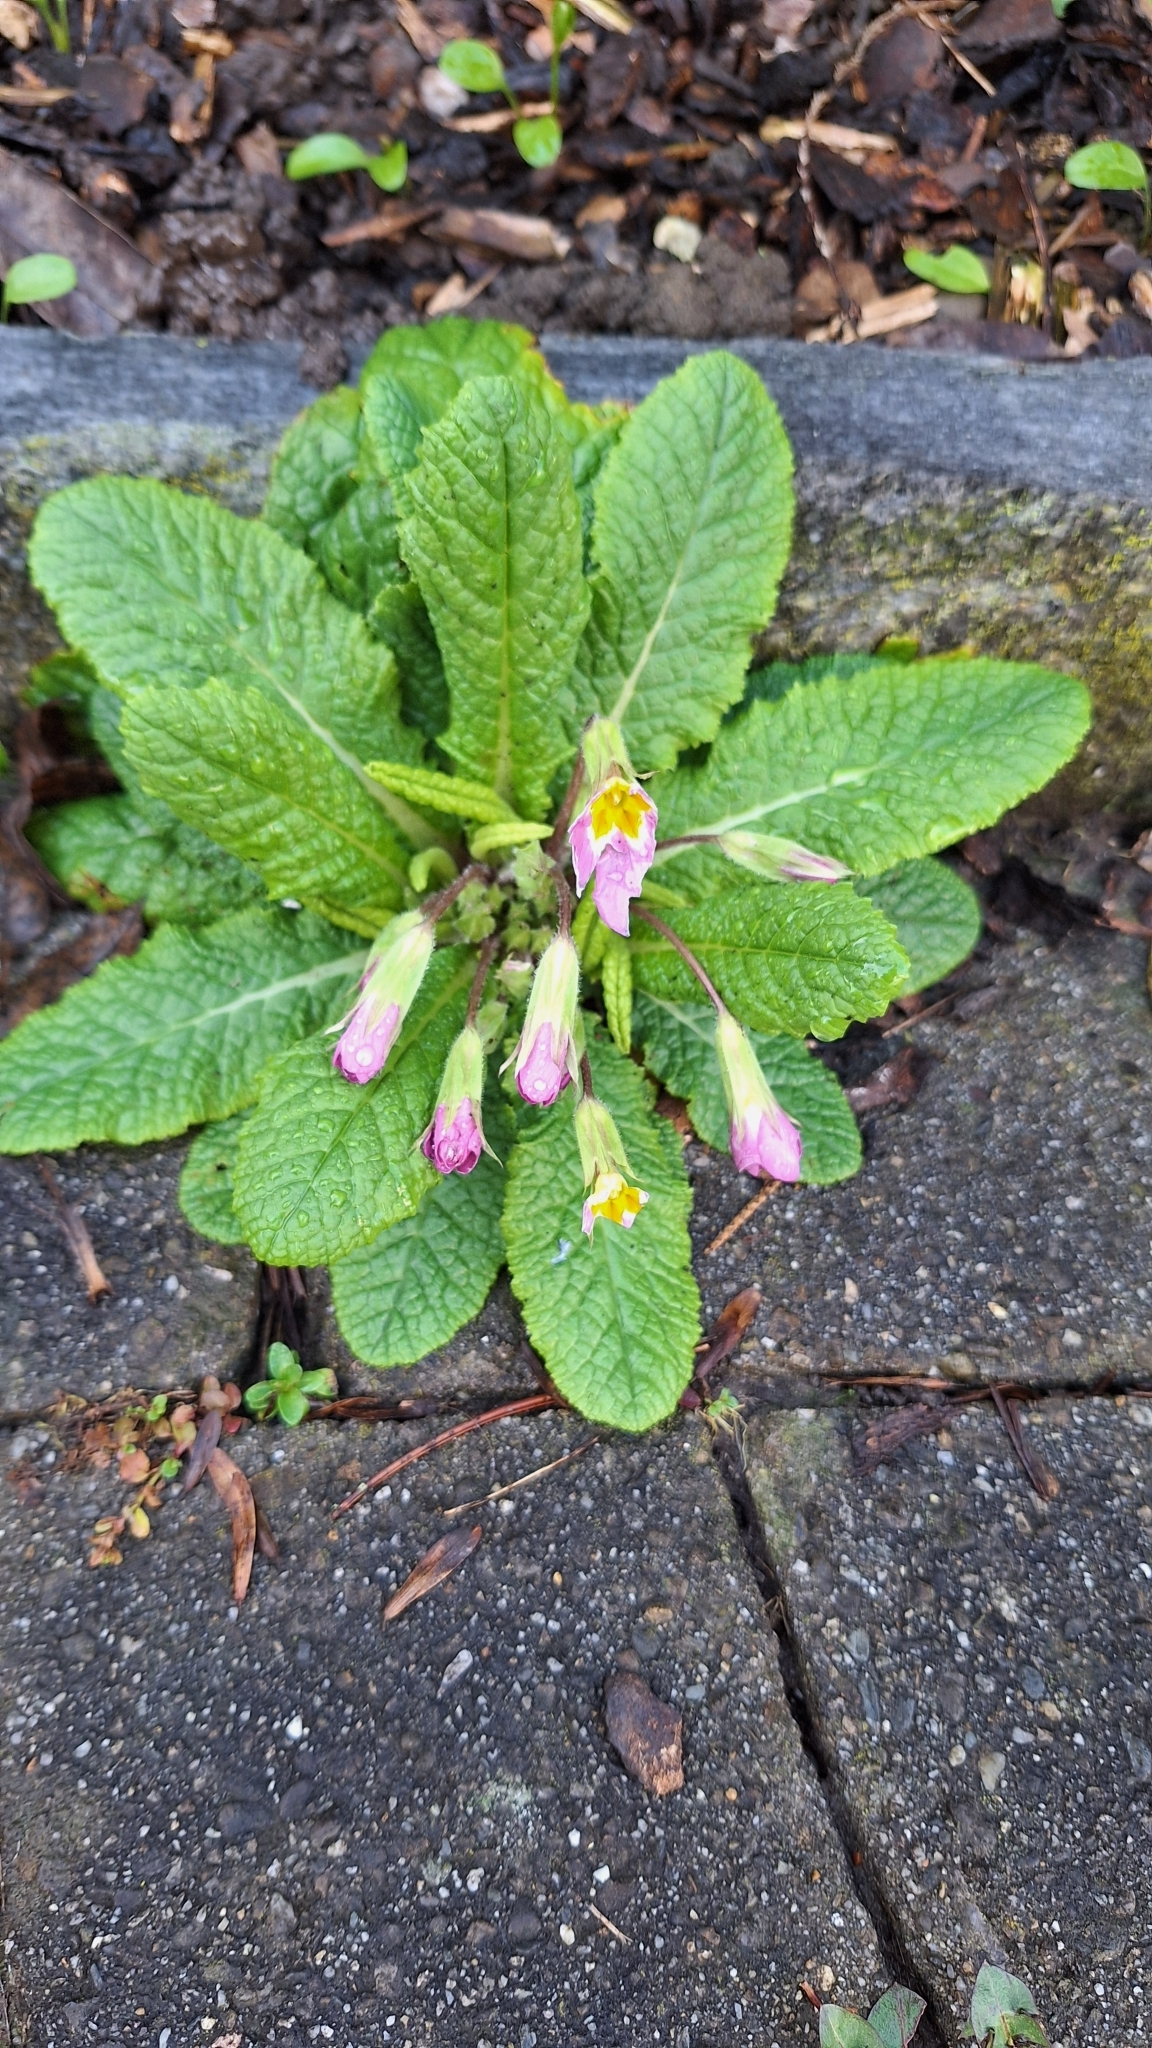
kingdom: Plantae
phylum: Tracheophyta
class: Magnoliopsida
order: Ericales
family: Primulaceae
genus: Primula
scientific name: Primula vulgaris
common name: Primrose
